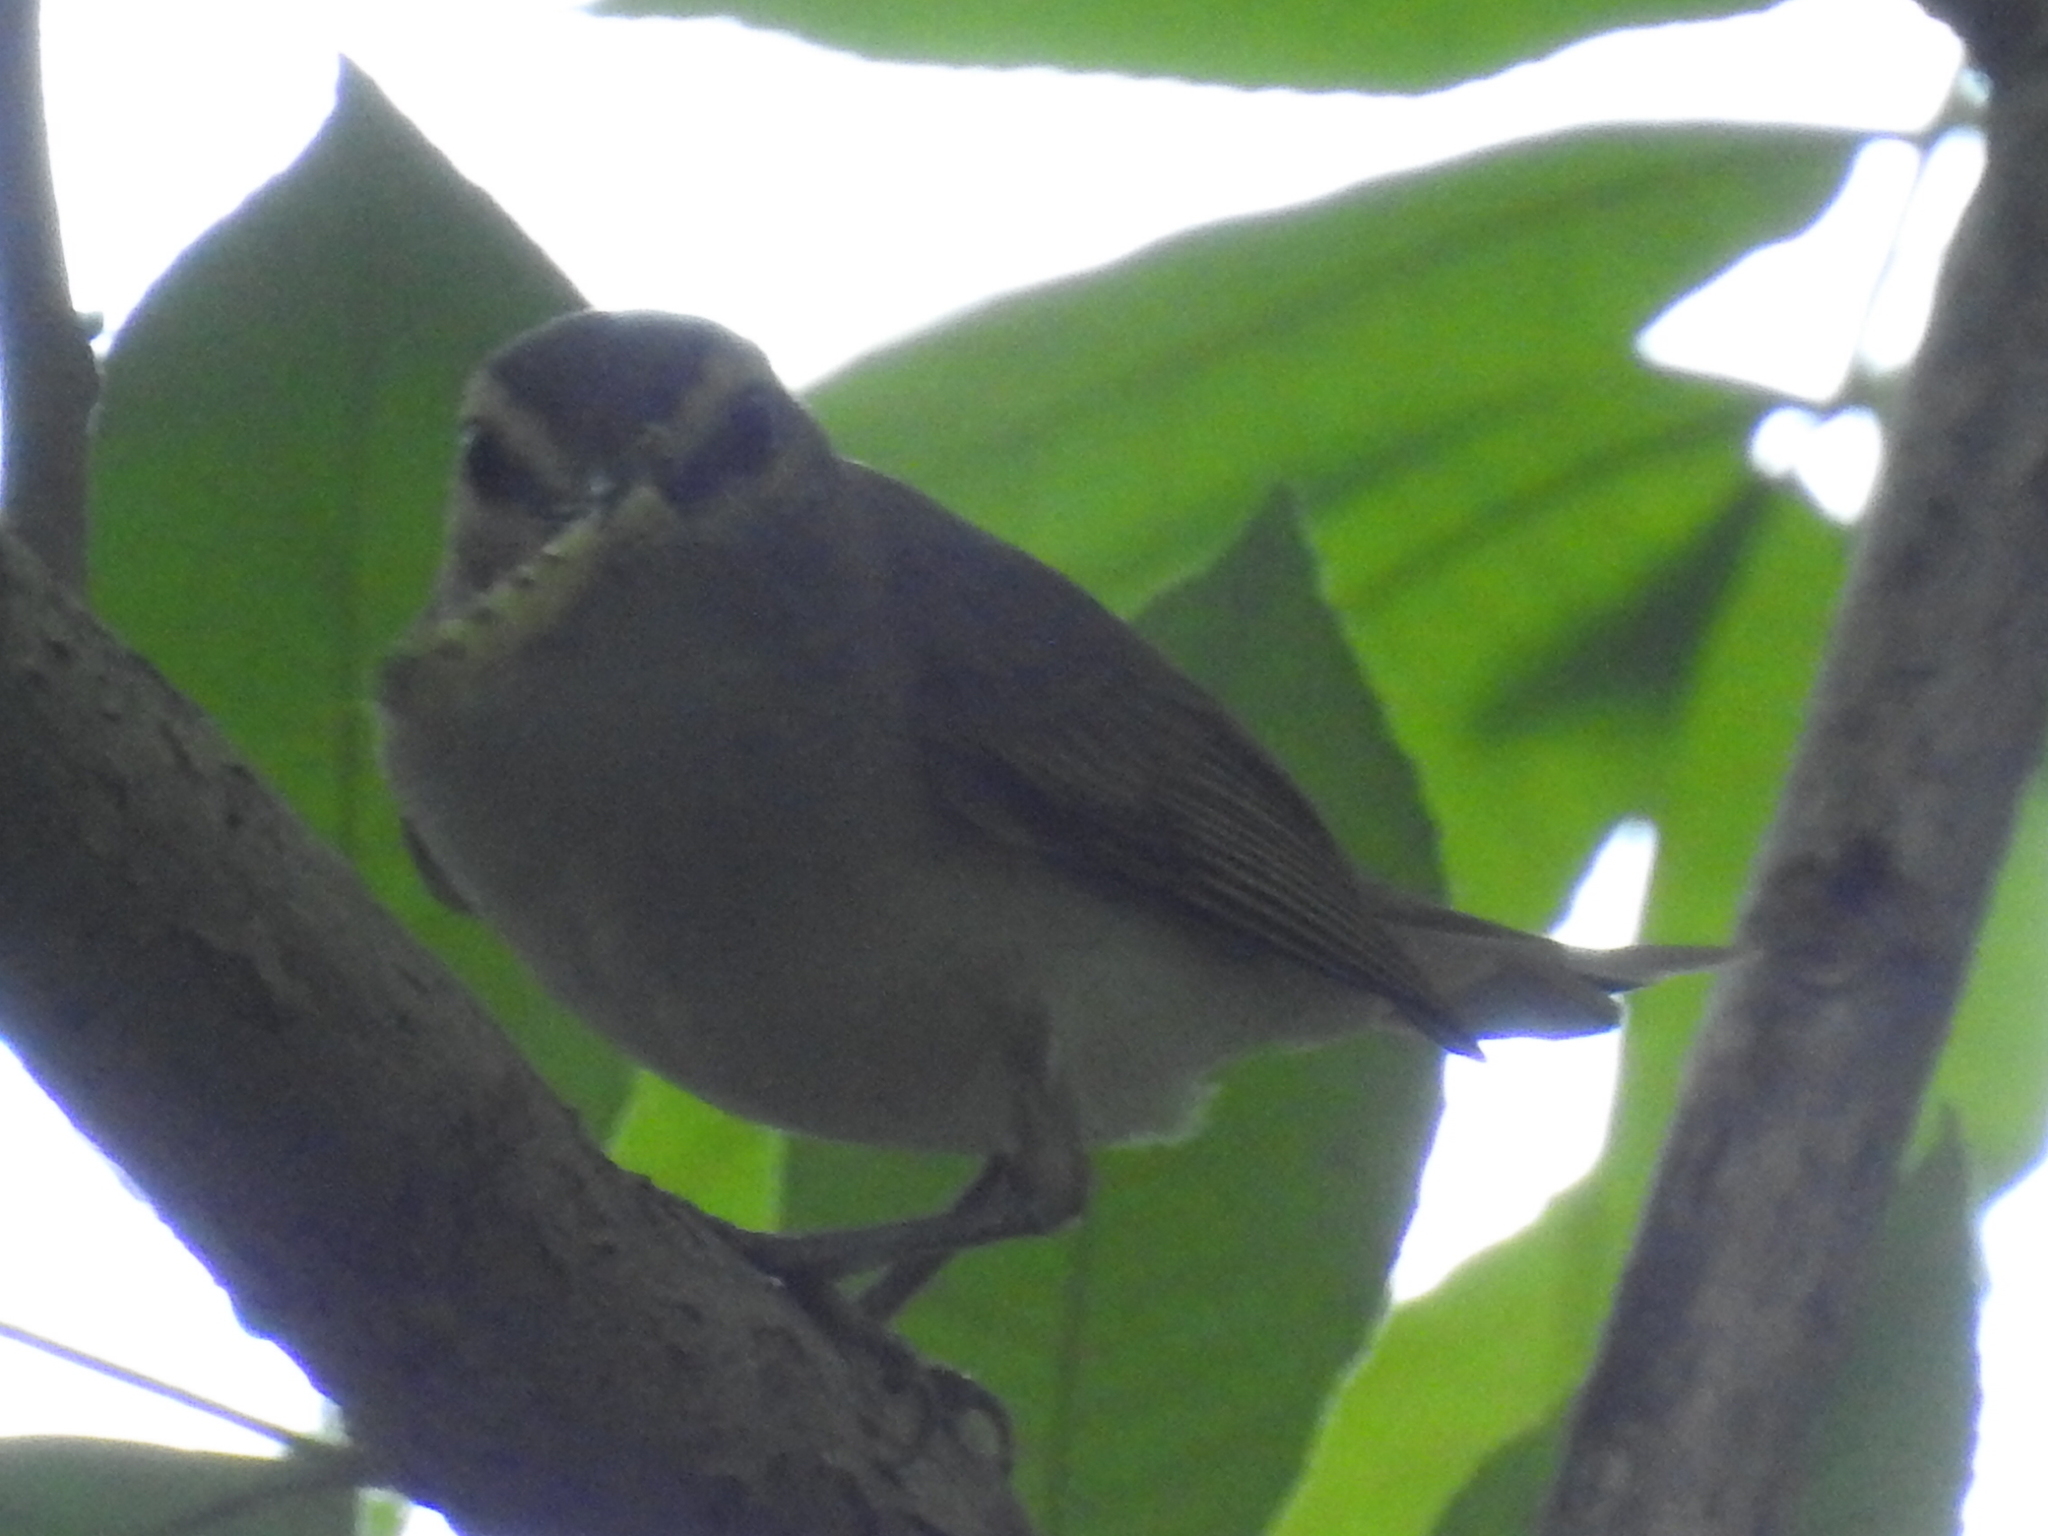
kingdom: Animalia
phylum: Chordata
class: Aves
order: Passeriformes
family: Vireonidae
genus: Vireo
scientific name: Vireo olivaceus
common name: Red-eyed vireo
